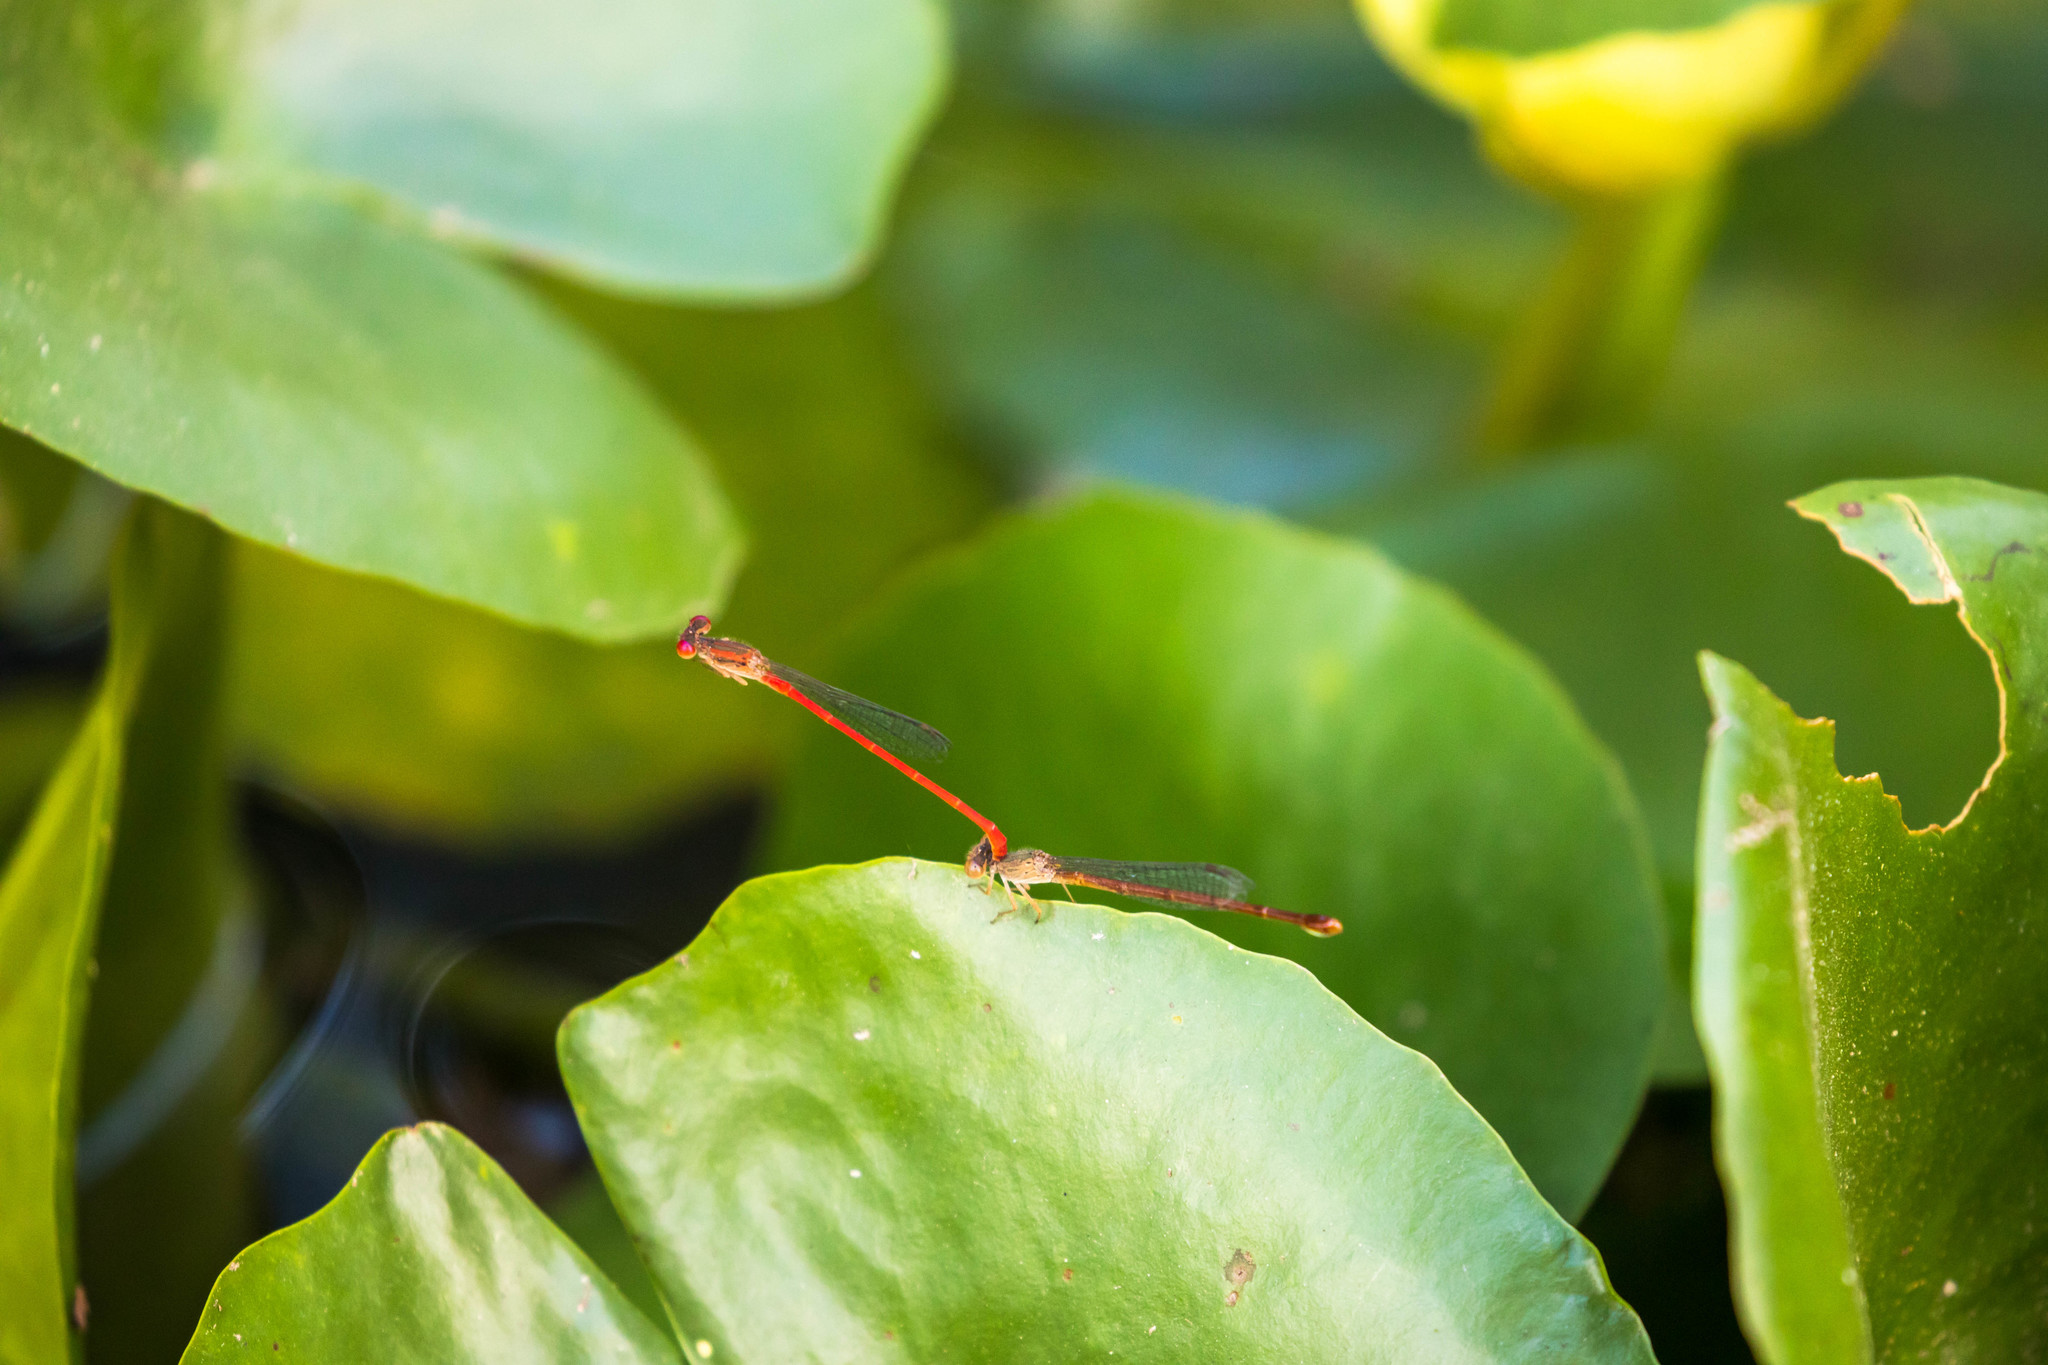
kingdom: Animalia
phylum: Arthropoda
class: Insecta
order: Odonata
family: Coenagrionidae
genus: Telebasis
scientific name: Telebasis salva
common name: Desert firetail
